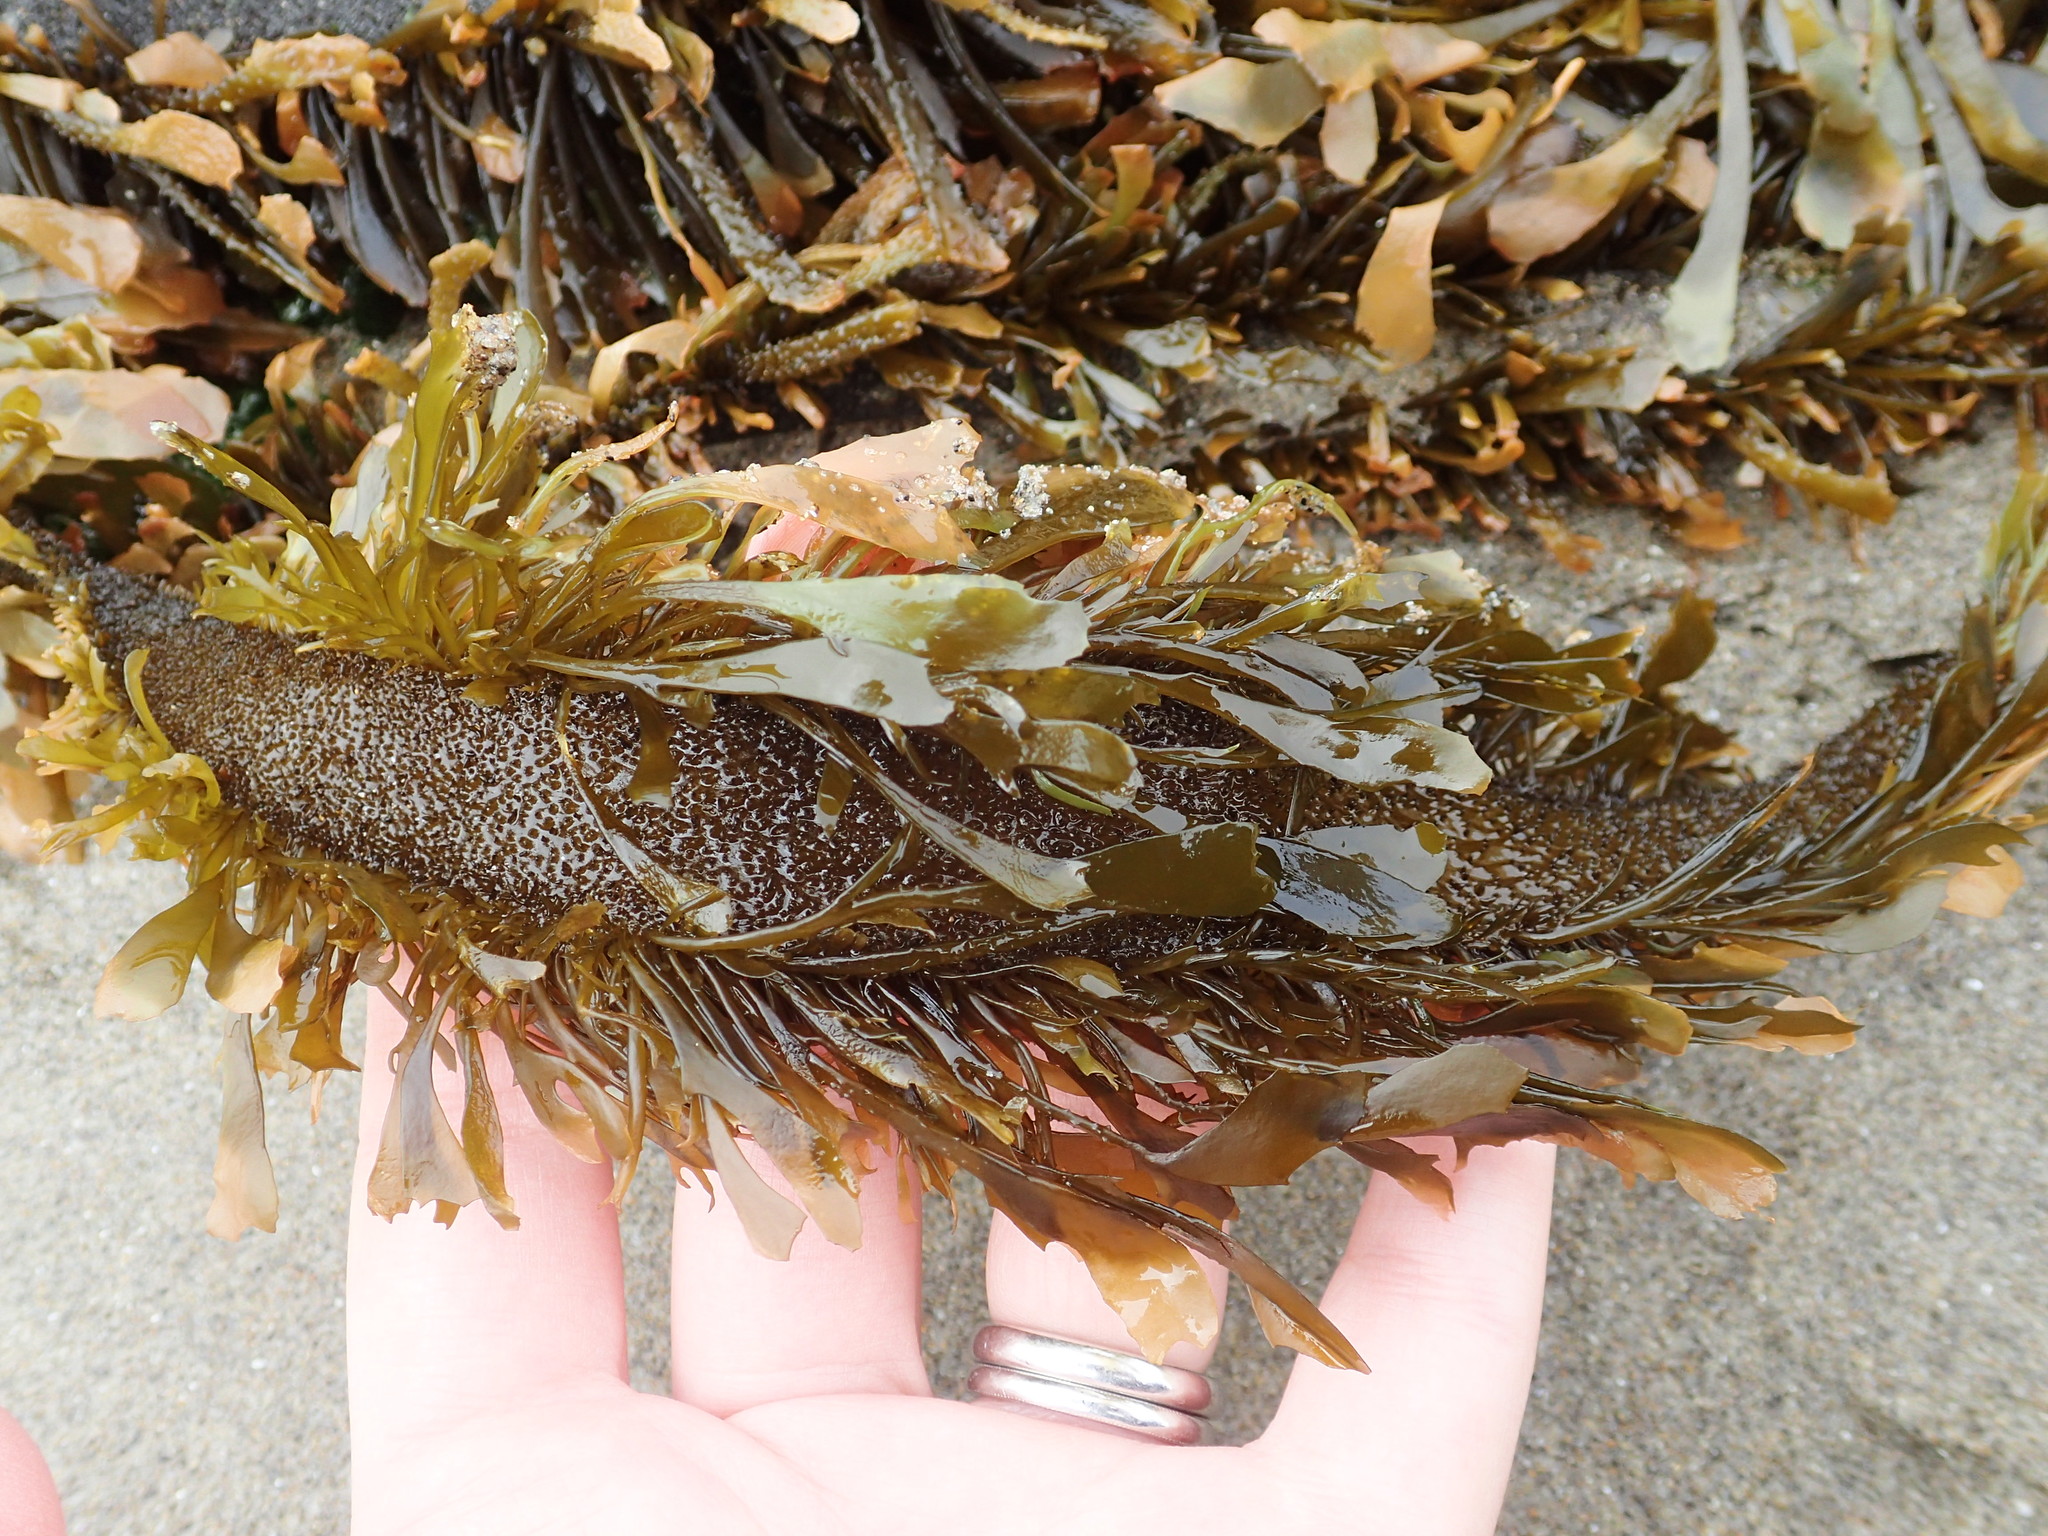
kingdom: Chromista
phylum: Ochrophyta
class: Phaeophyceae
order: Laminariales
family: Lessoniaceae
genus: Egregia
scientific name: Egregia menziesii
